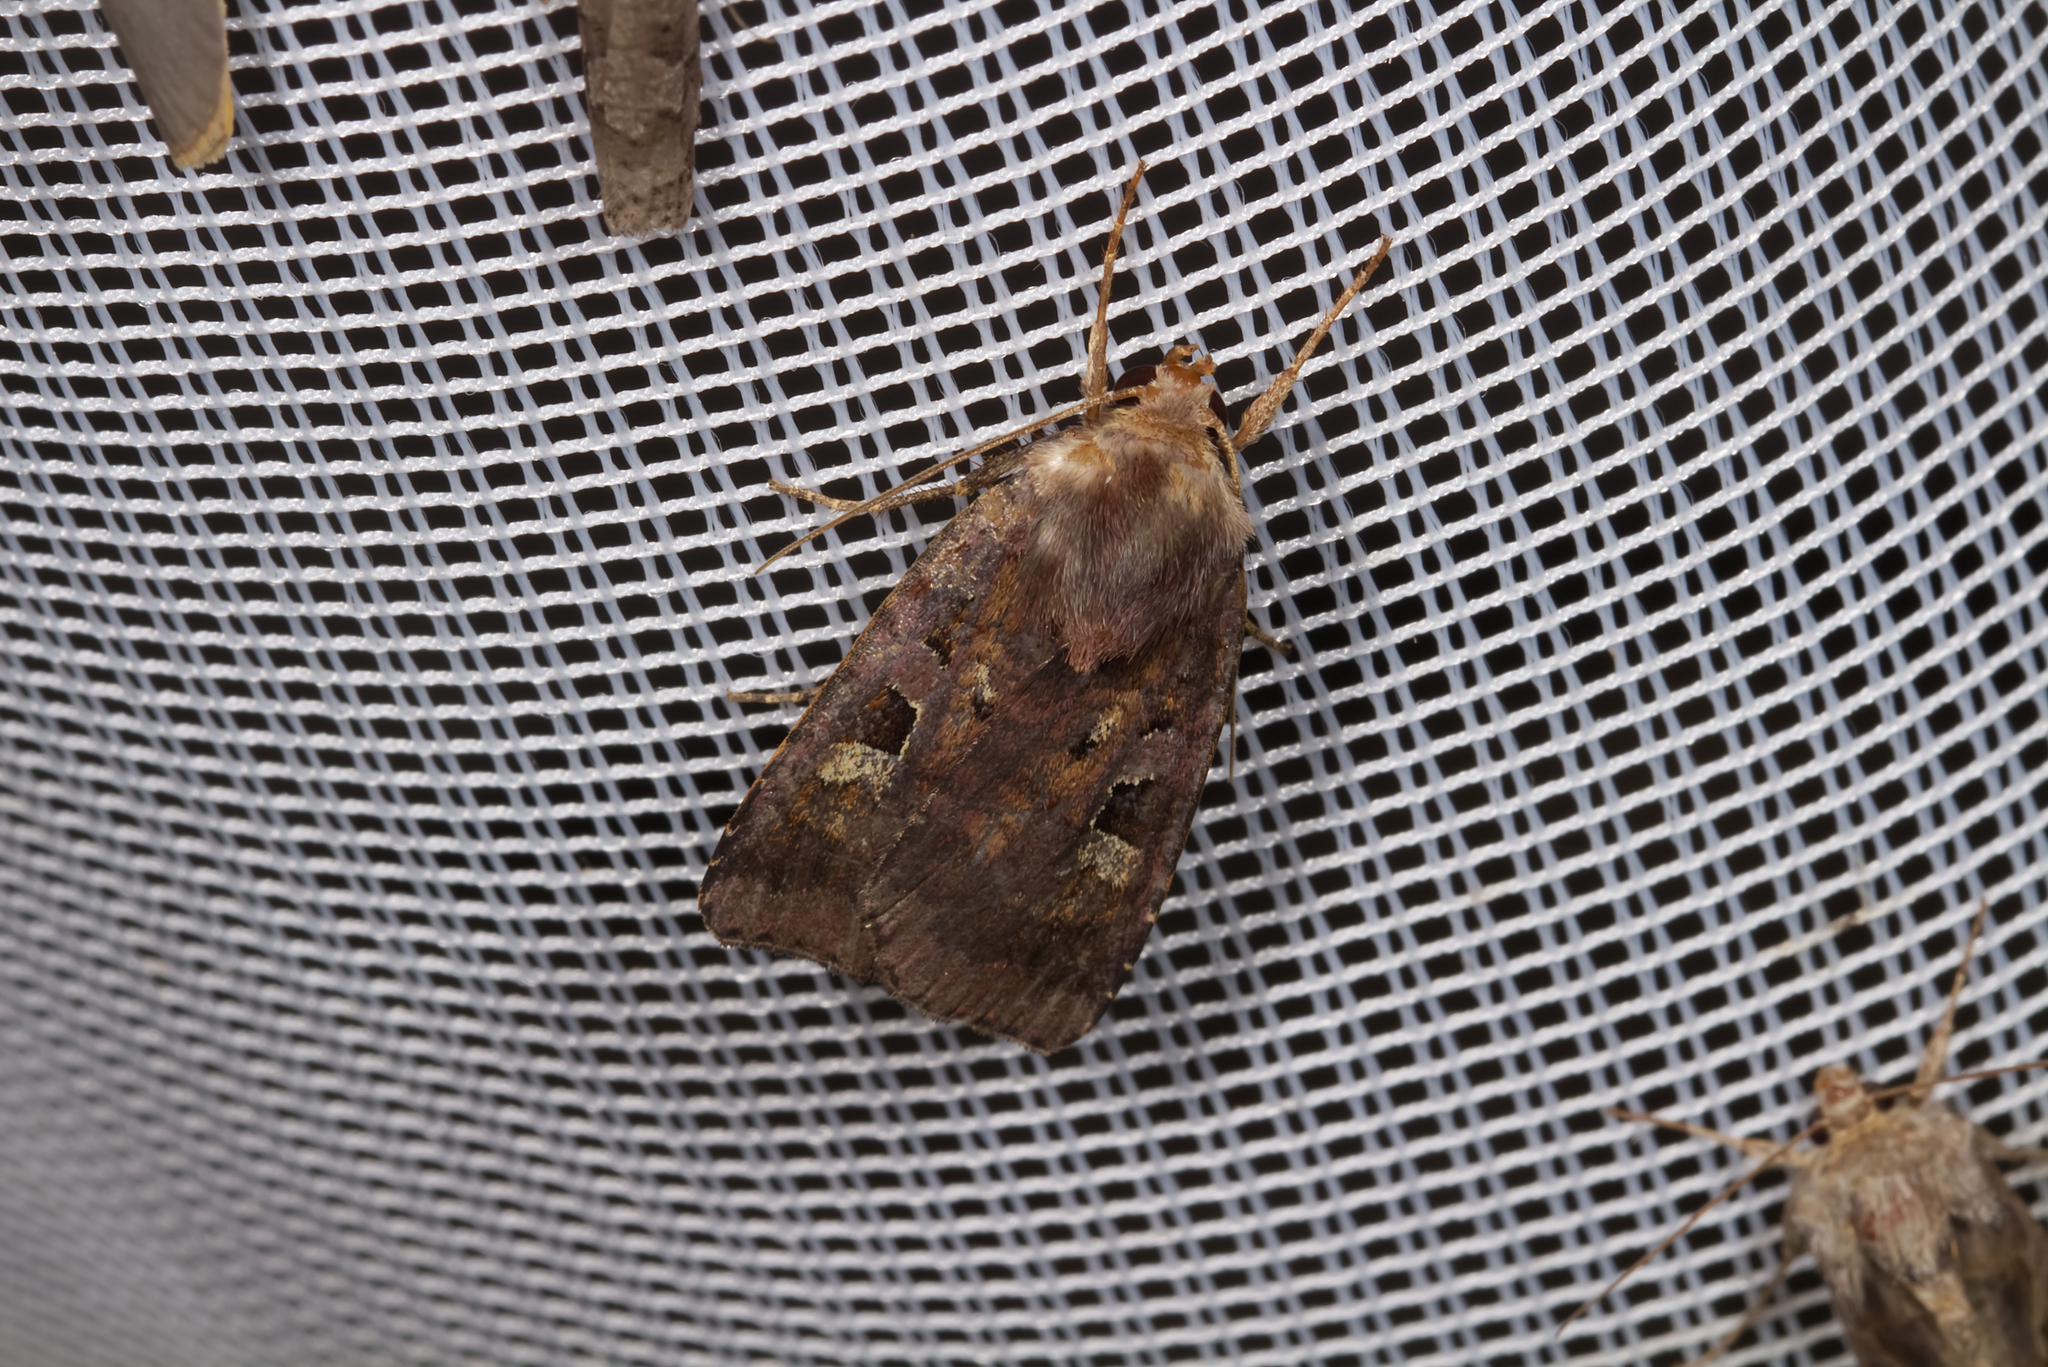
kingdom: Animalia
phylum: Arthropoda
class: Insecta
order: Lepidoptera
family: Noctuidae
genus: Diarsia
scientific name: Diarsia brunnea
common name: Purple clay
